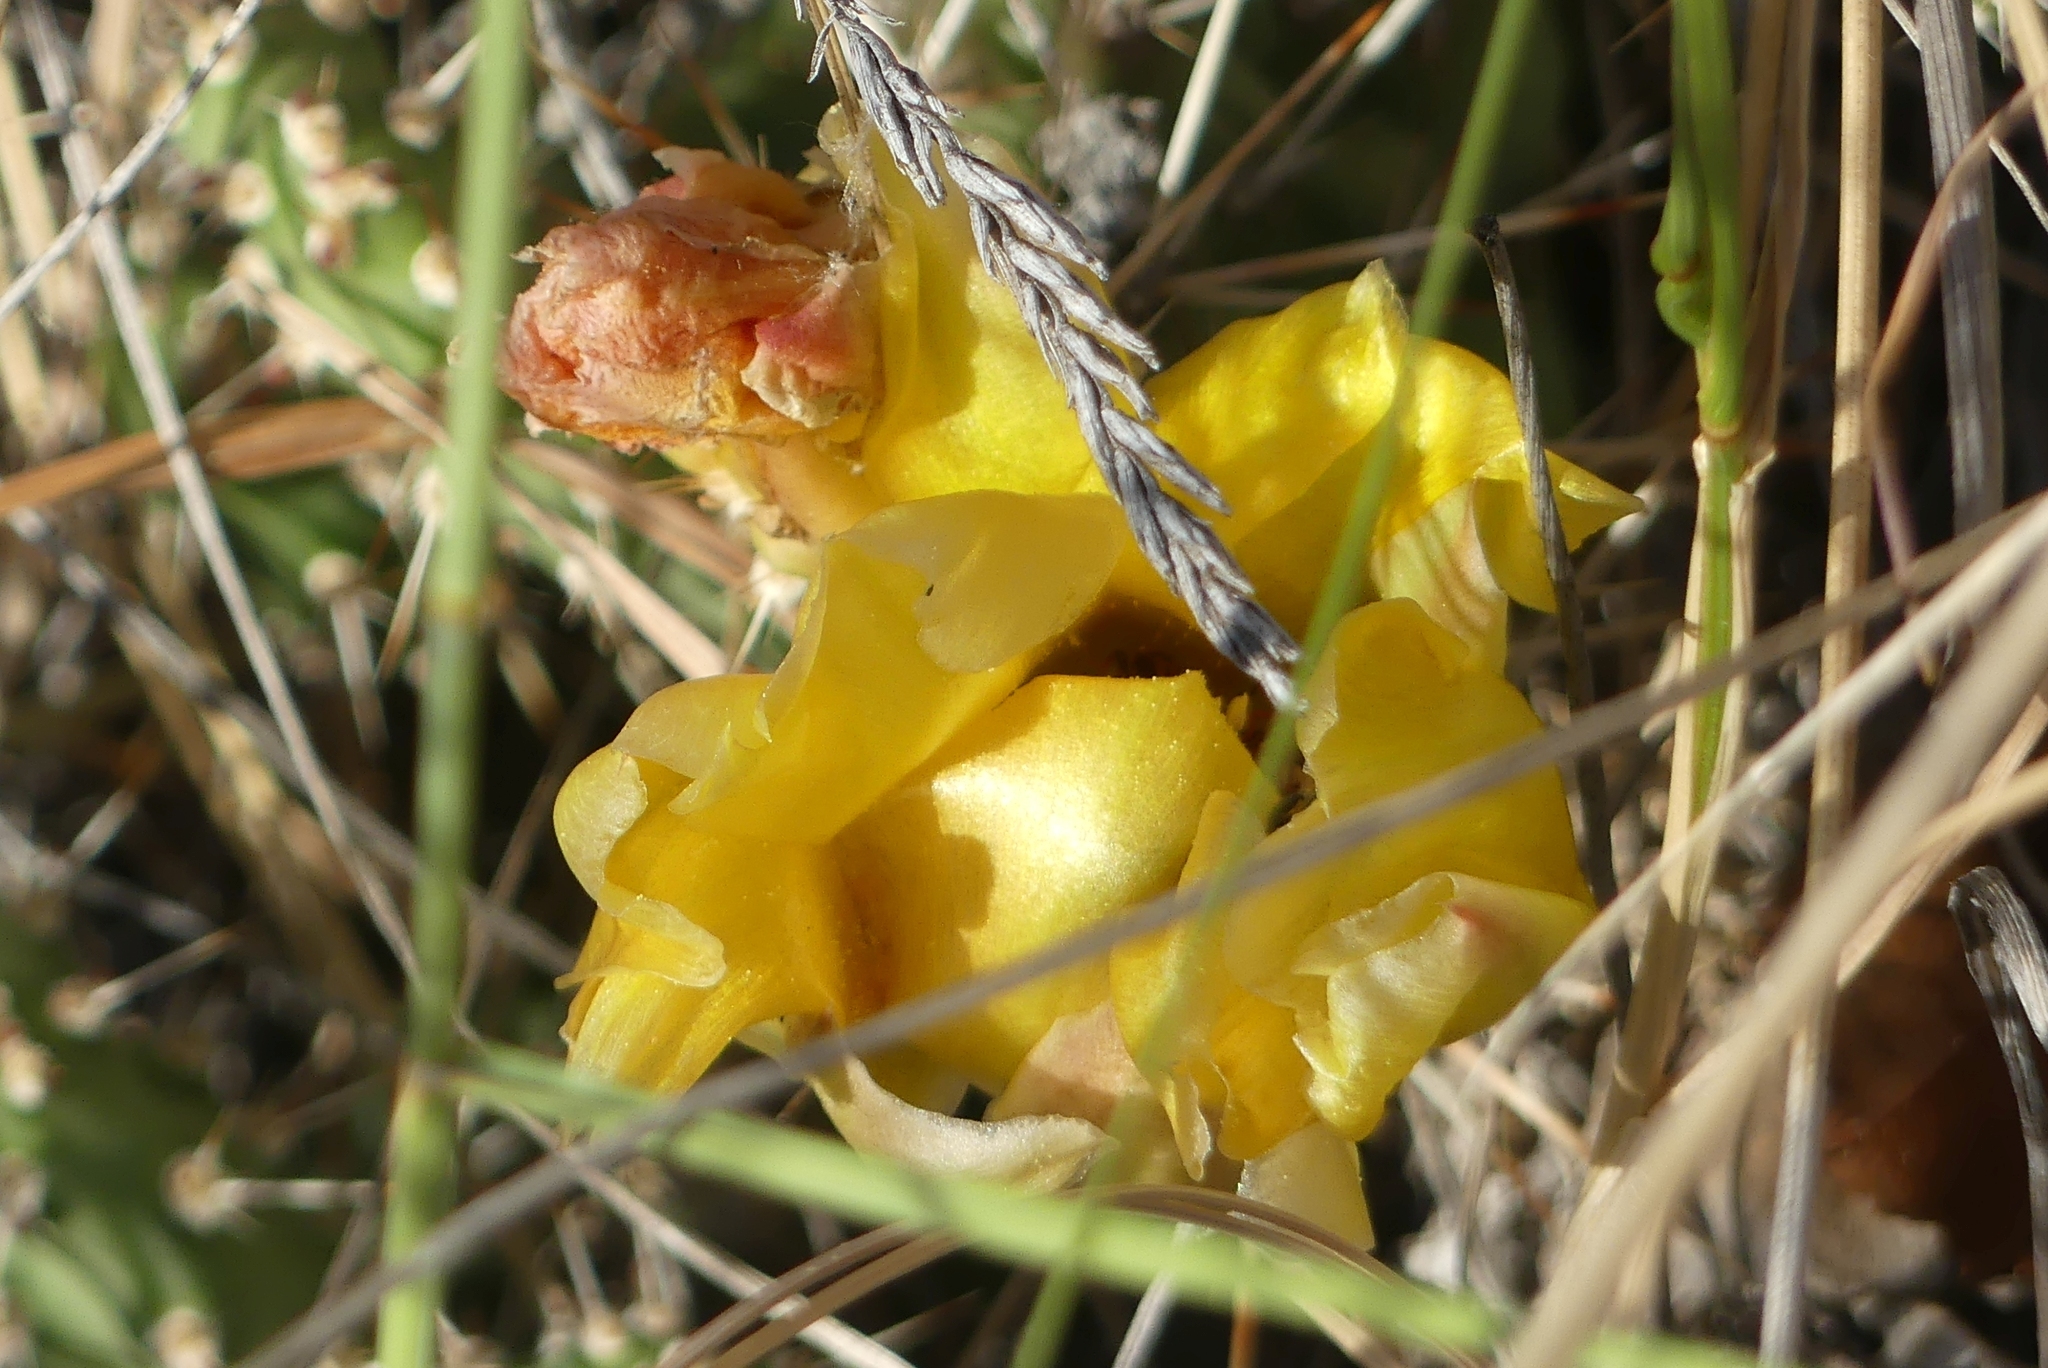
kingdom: Plantae
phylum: Tracheophyta
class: Magnoliopsida
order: Caryophyllales
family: Cactaceae
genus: Opuntia
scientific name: Opuntia fragilis
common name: Brittle cactus
